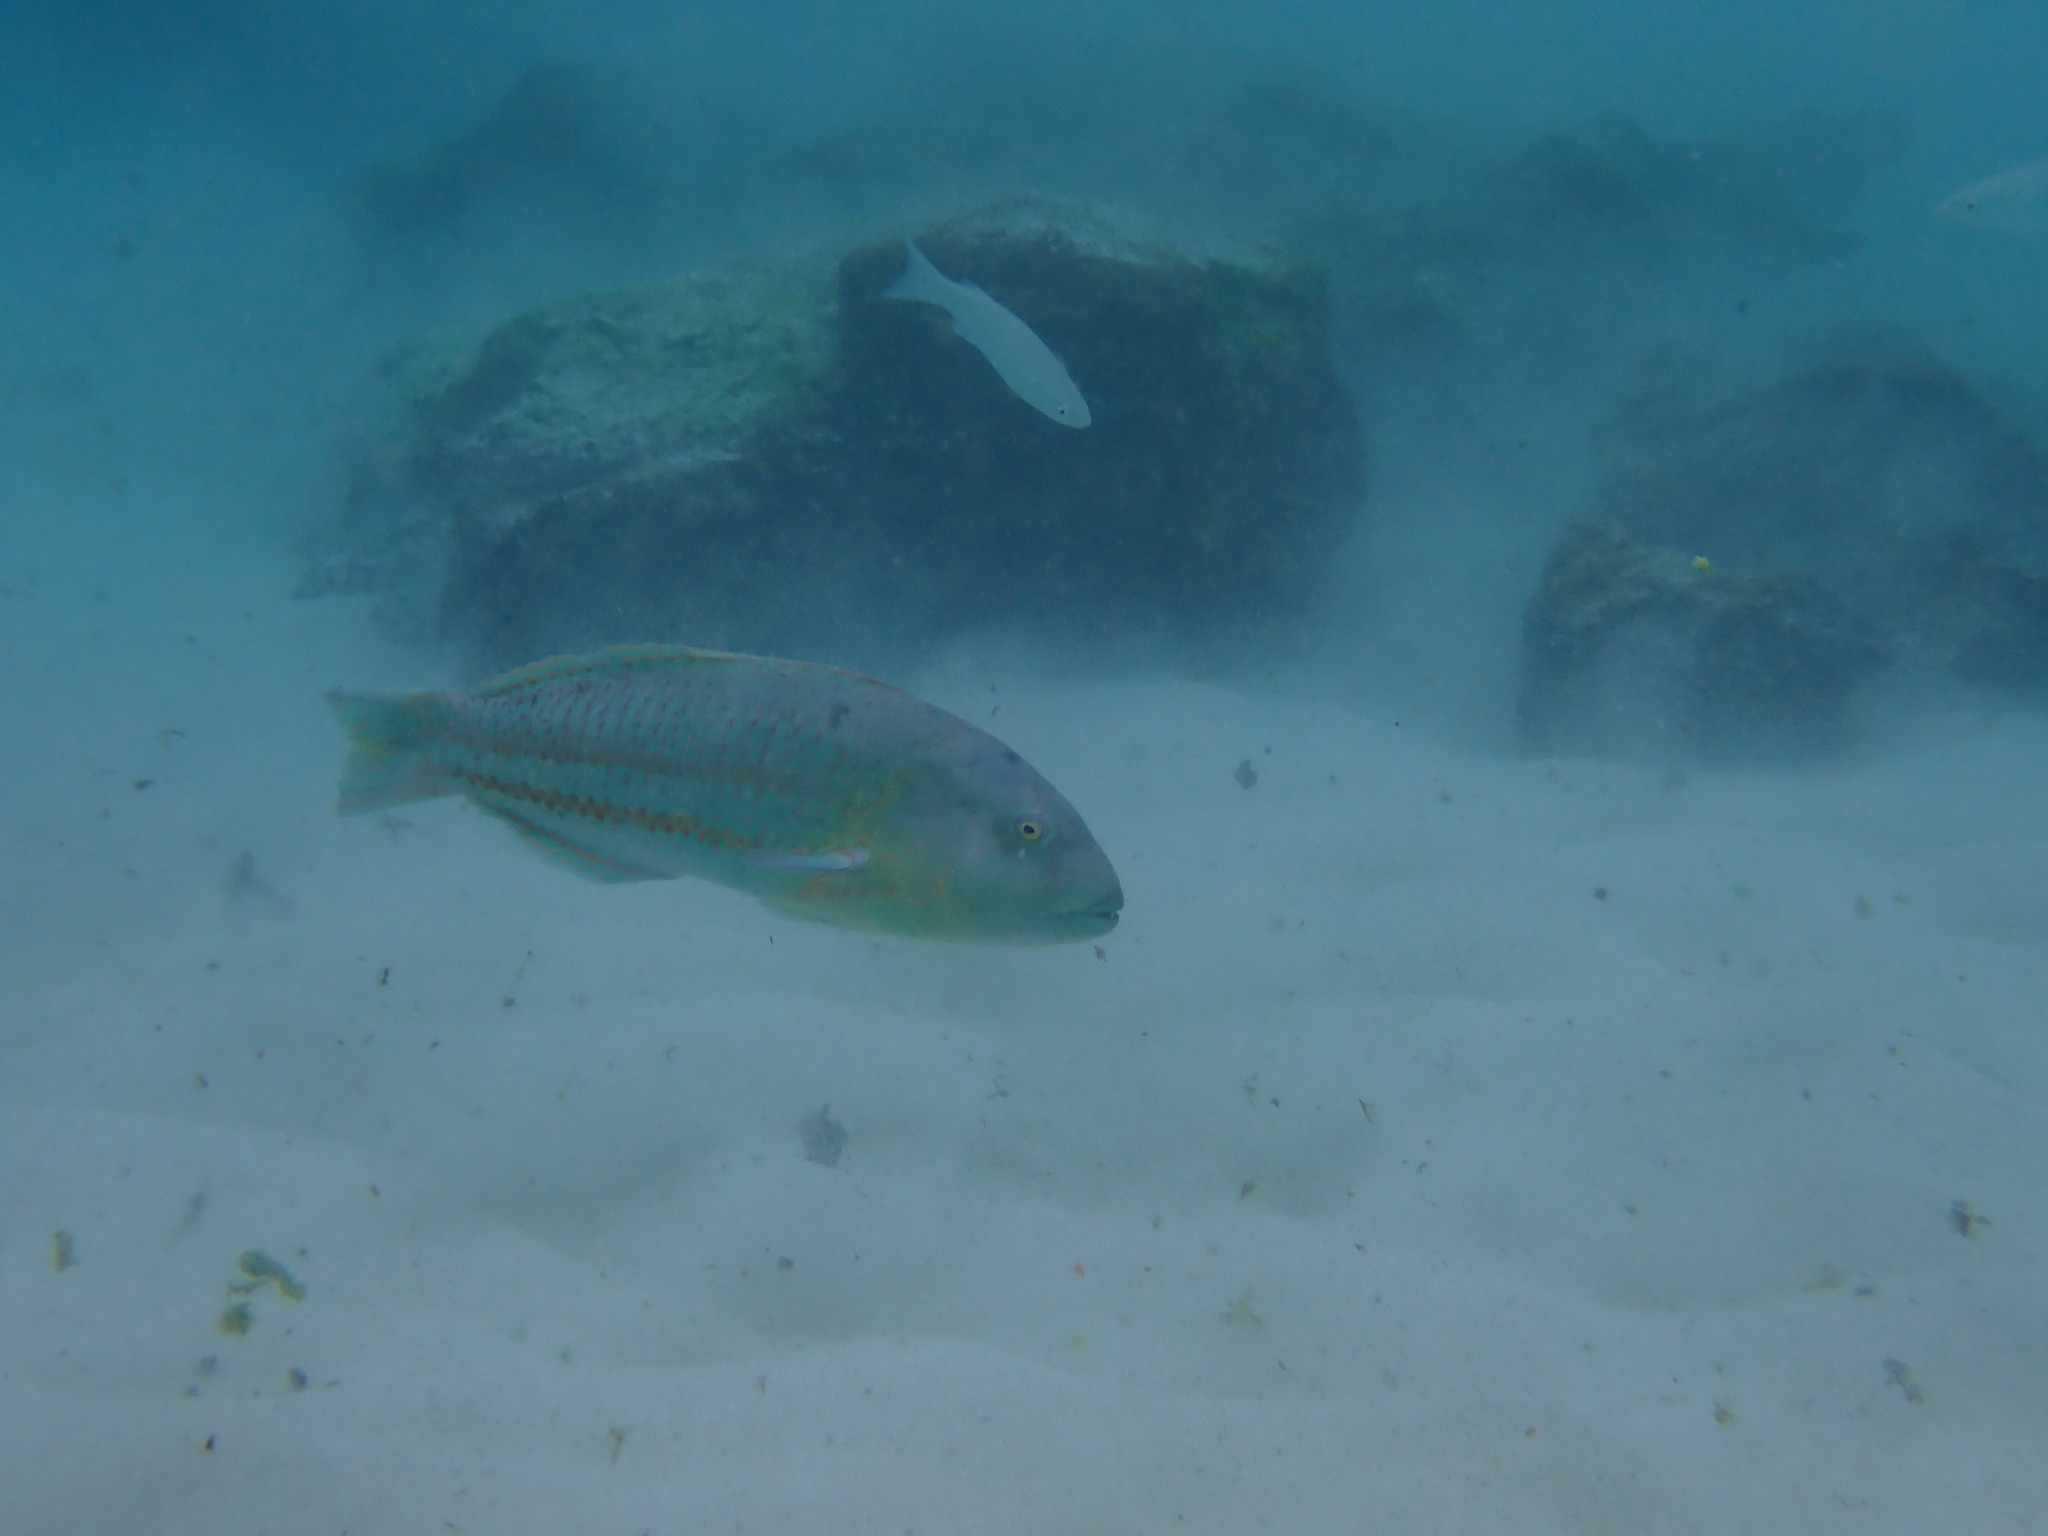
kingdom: Animalia
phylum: Chordata
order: Perciformes
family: Labridae
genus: Thalassoma
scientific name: Thalassoma purpureum
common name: Parrotfish
